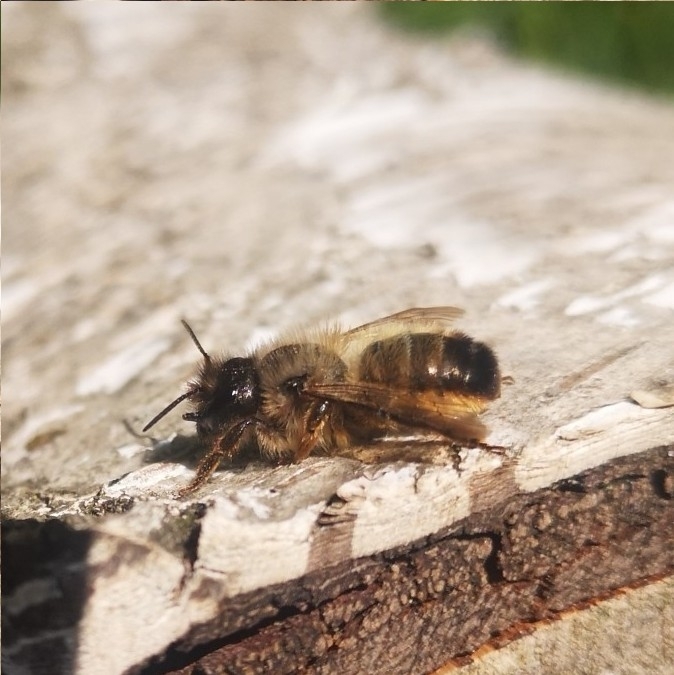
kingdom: Animalia
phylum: Arthropoda
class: Insecta
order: Hymenoptera
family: Megachilidae
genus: Osmia
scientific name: Osmia bicornis
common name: Red mason bee
